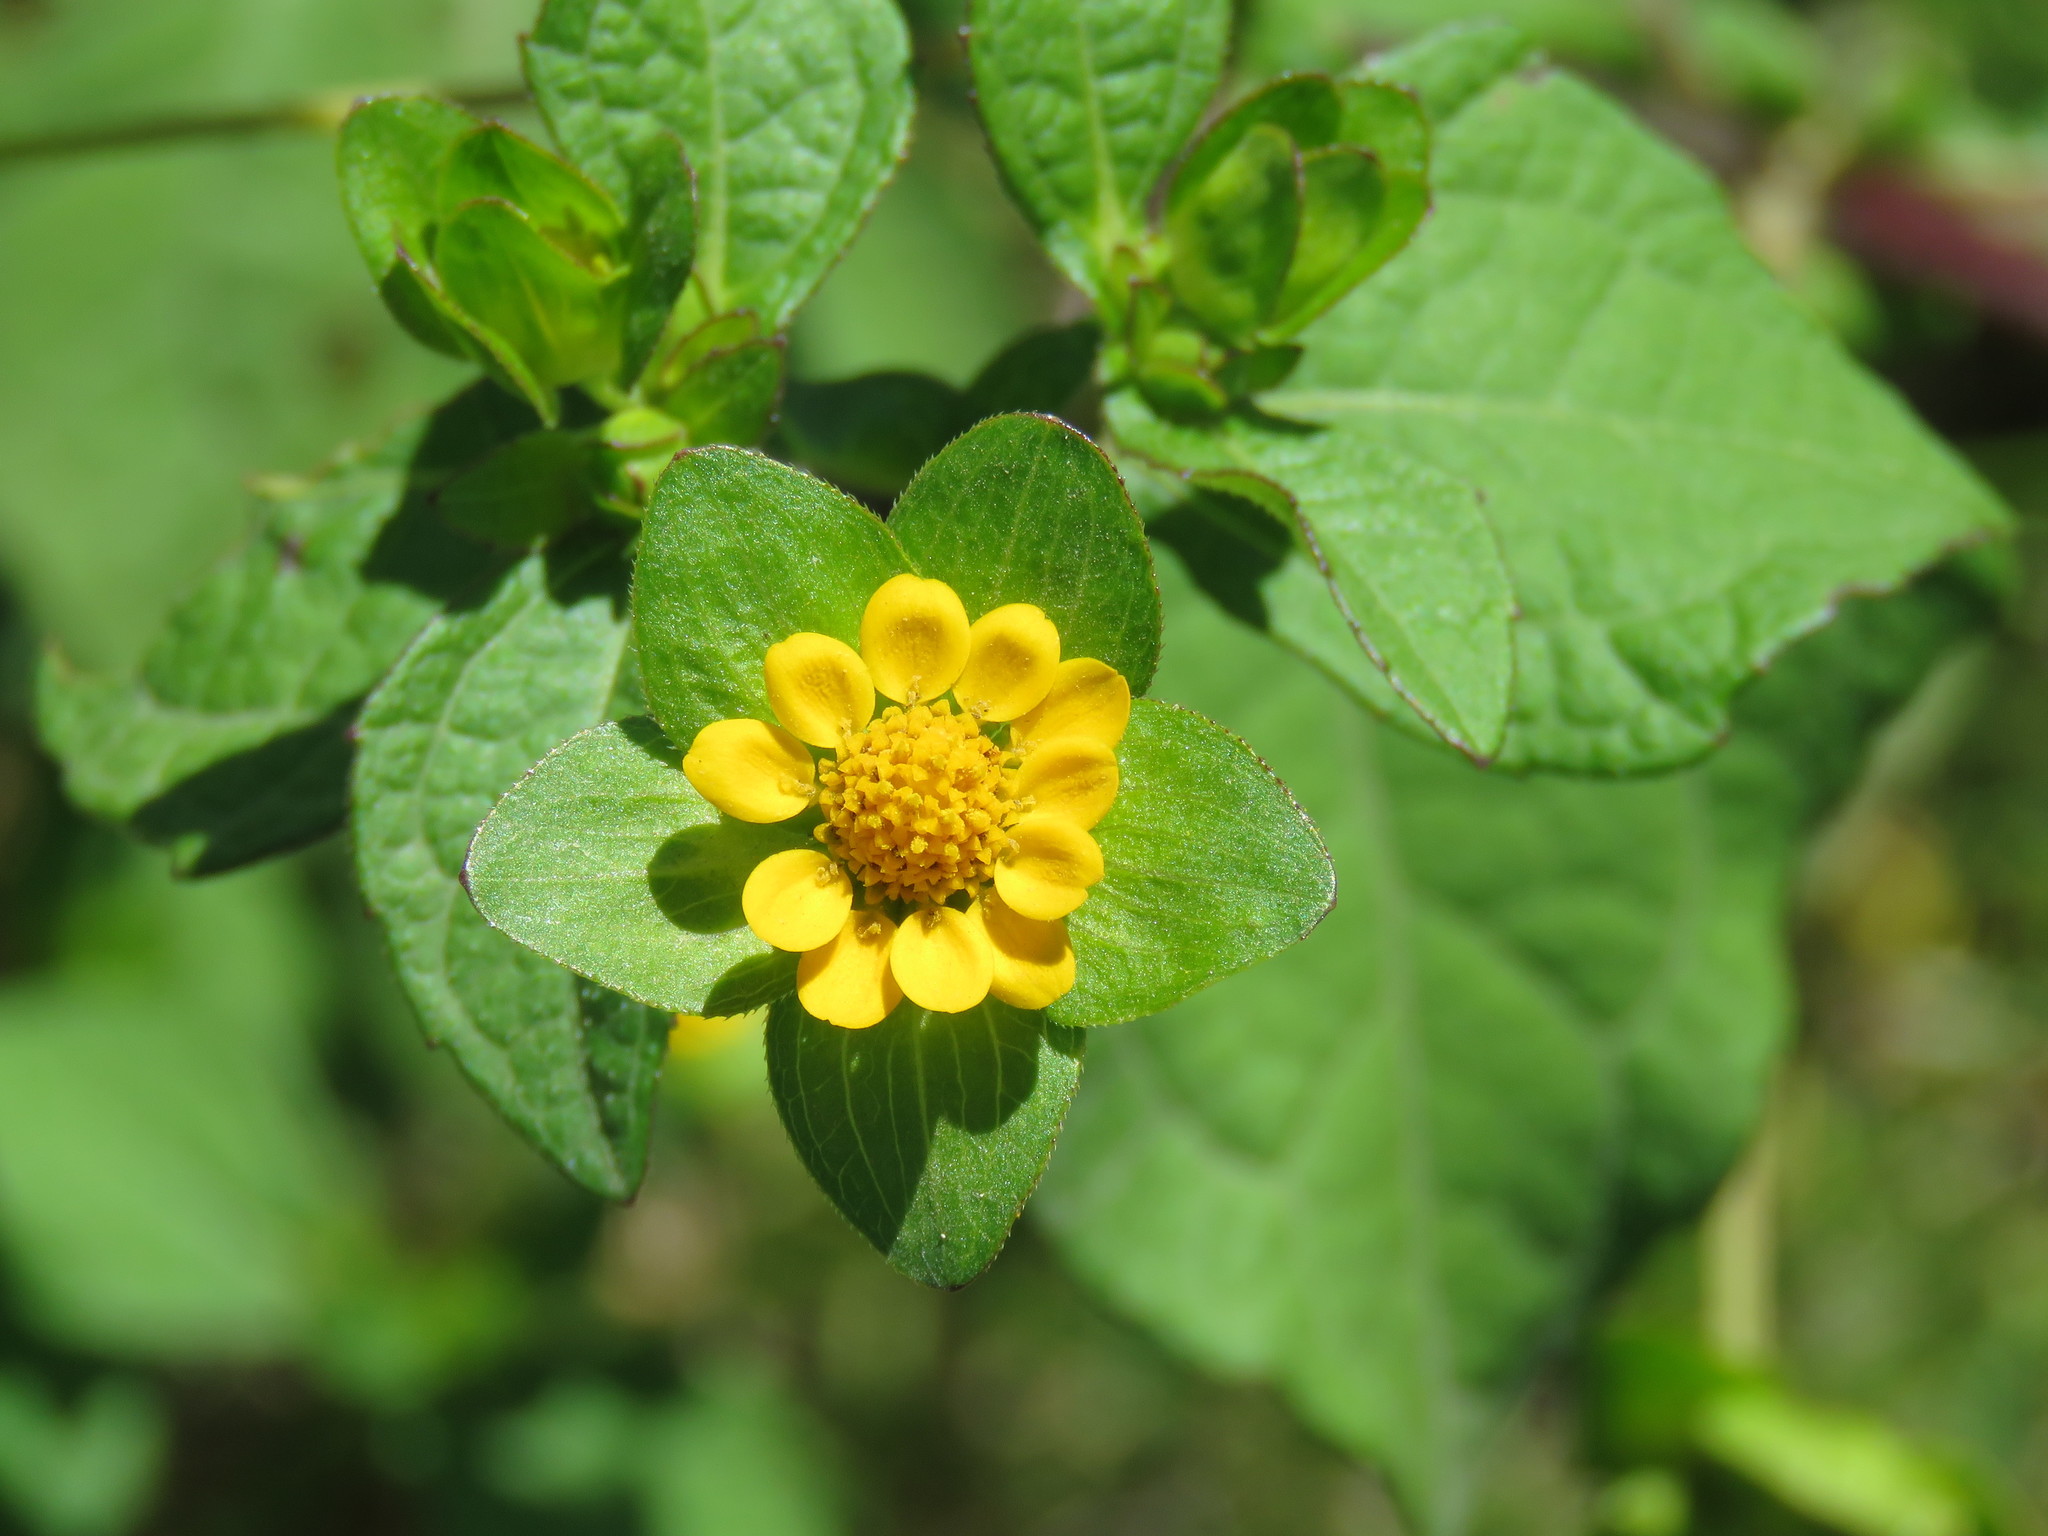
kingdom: Plantae
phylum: Tracheophyta
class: Magnoliopsida
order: Asterales
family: Asteraceae
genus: Melampodium
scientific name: Melampodium perfoliatum
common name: Perfoliate blackfoot
